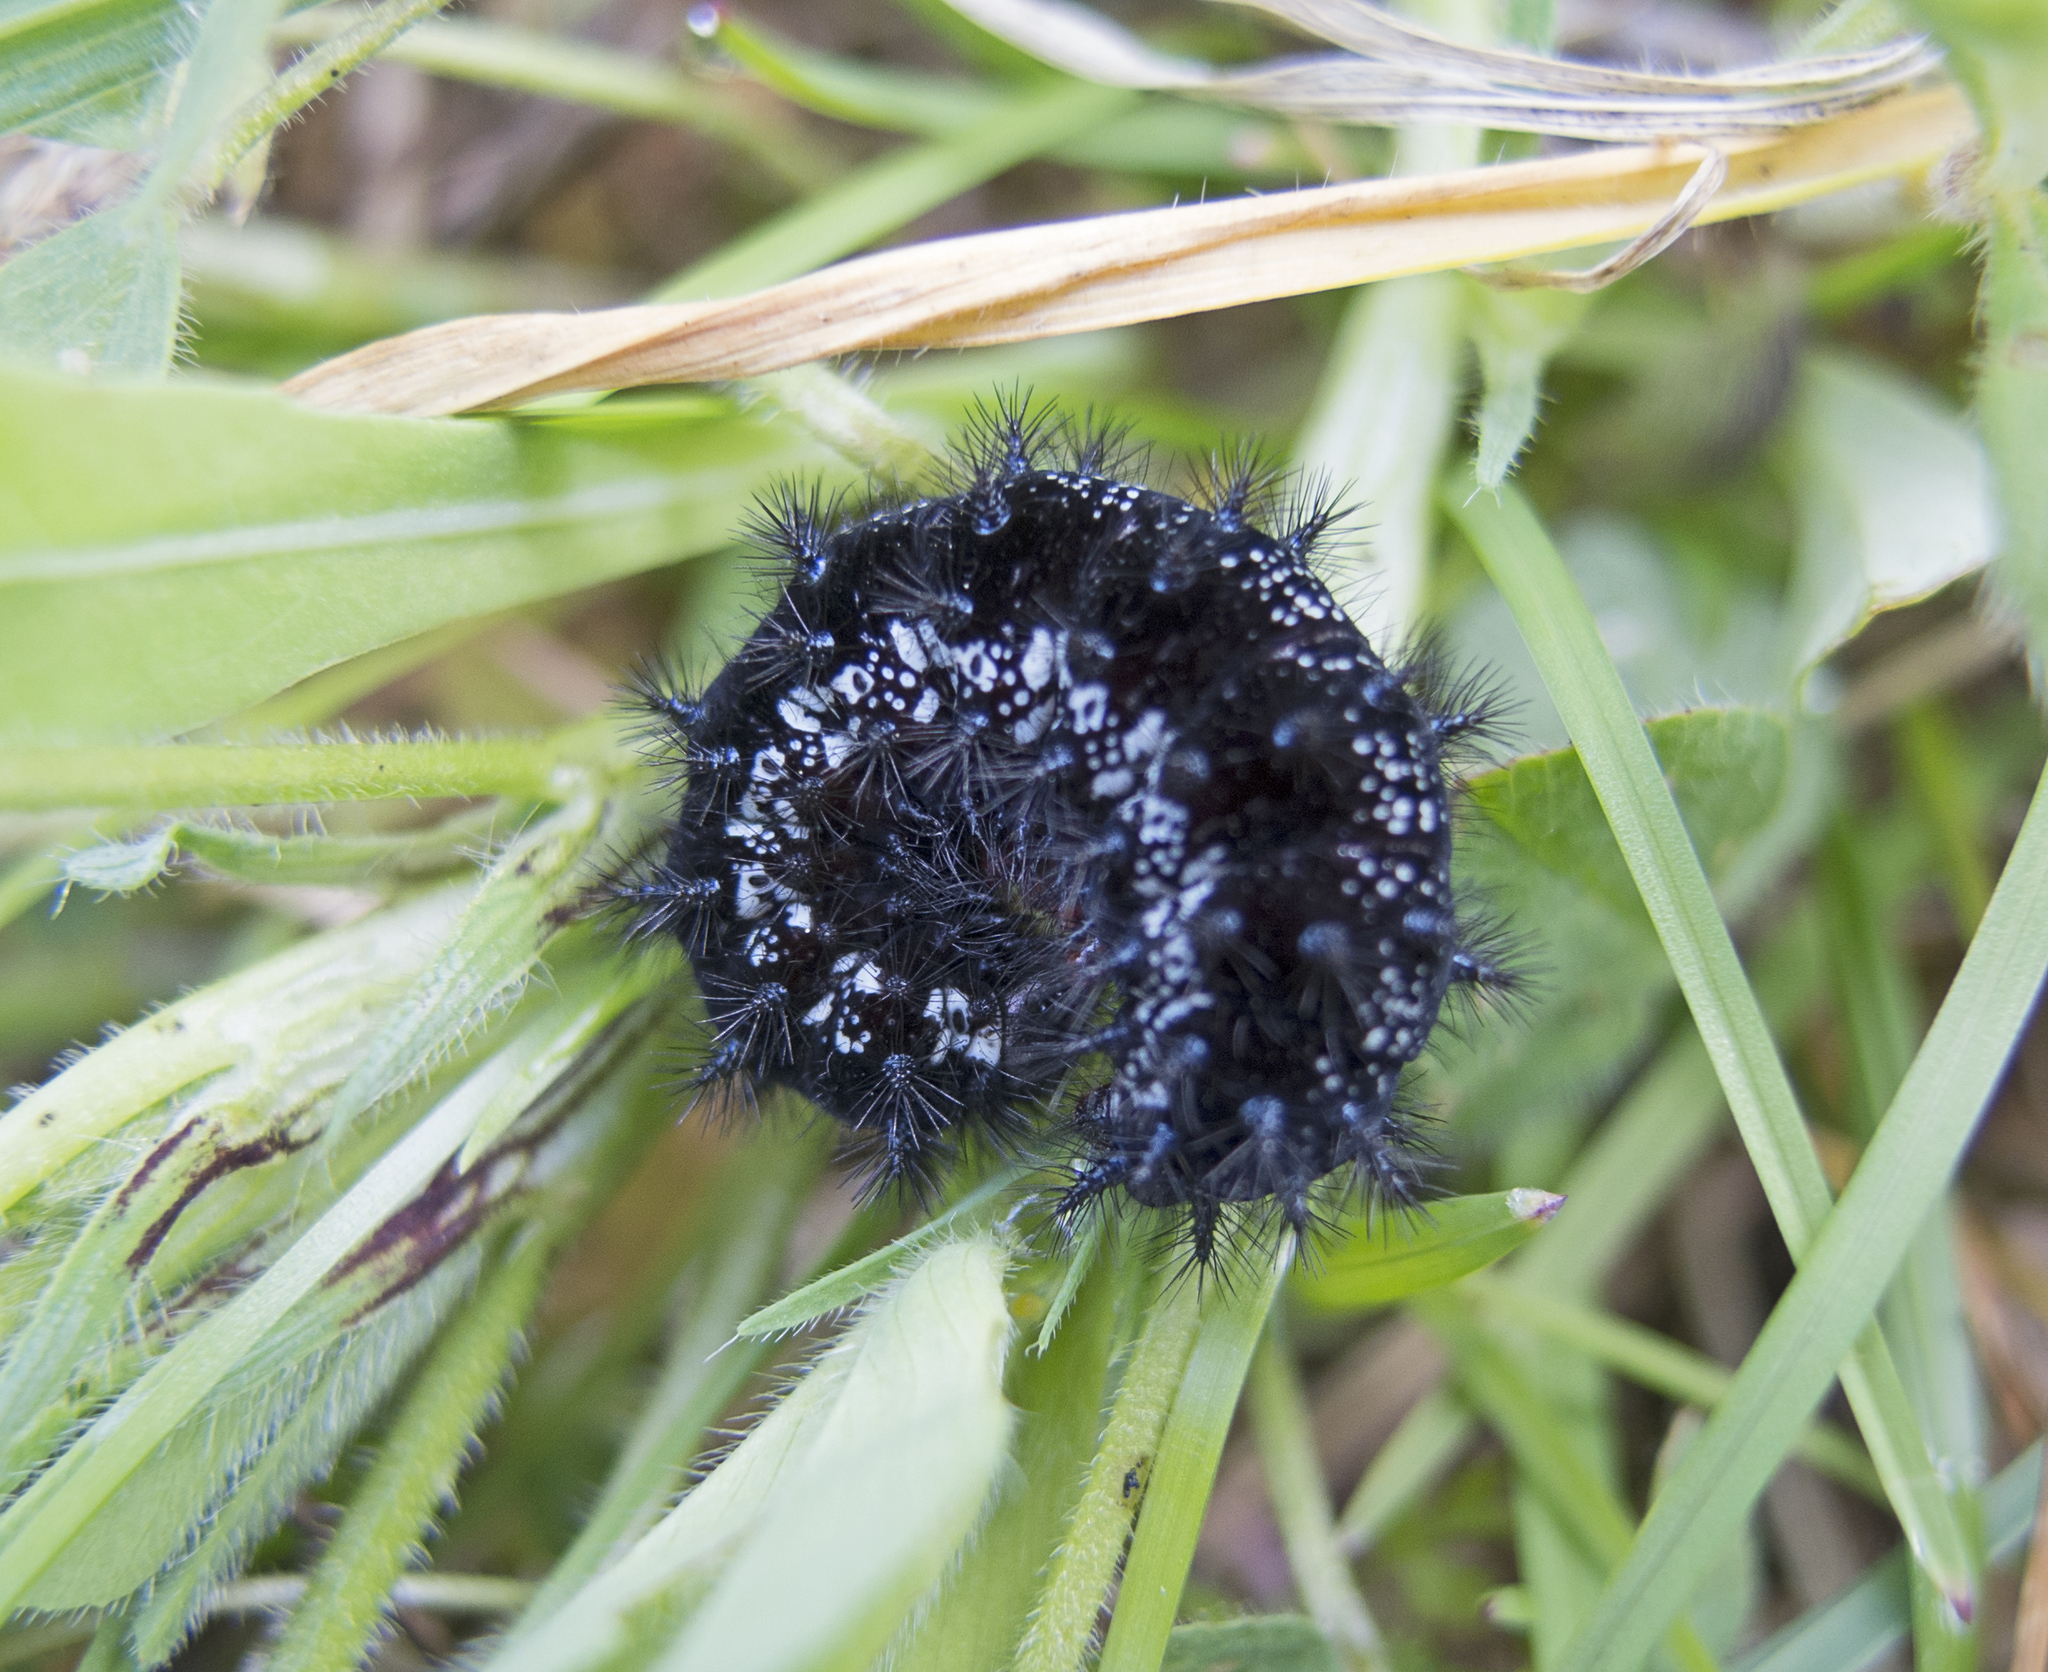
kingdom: Animalia
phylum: Arthropoda
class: Insecta
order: Lepidoptera
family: Nymphalidae
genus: Euphydryas
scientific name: Euphydryas aurinia
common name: Marsh fritillary
